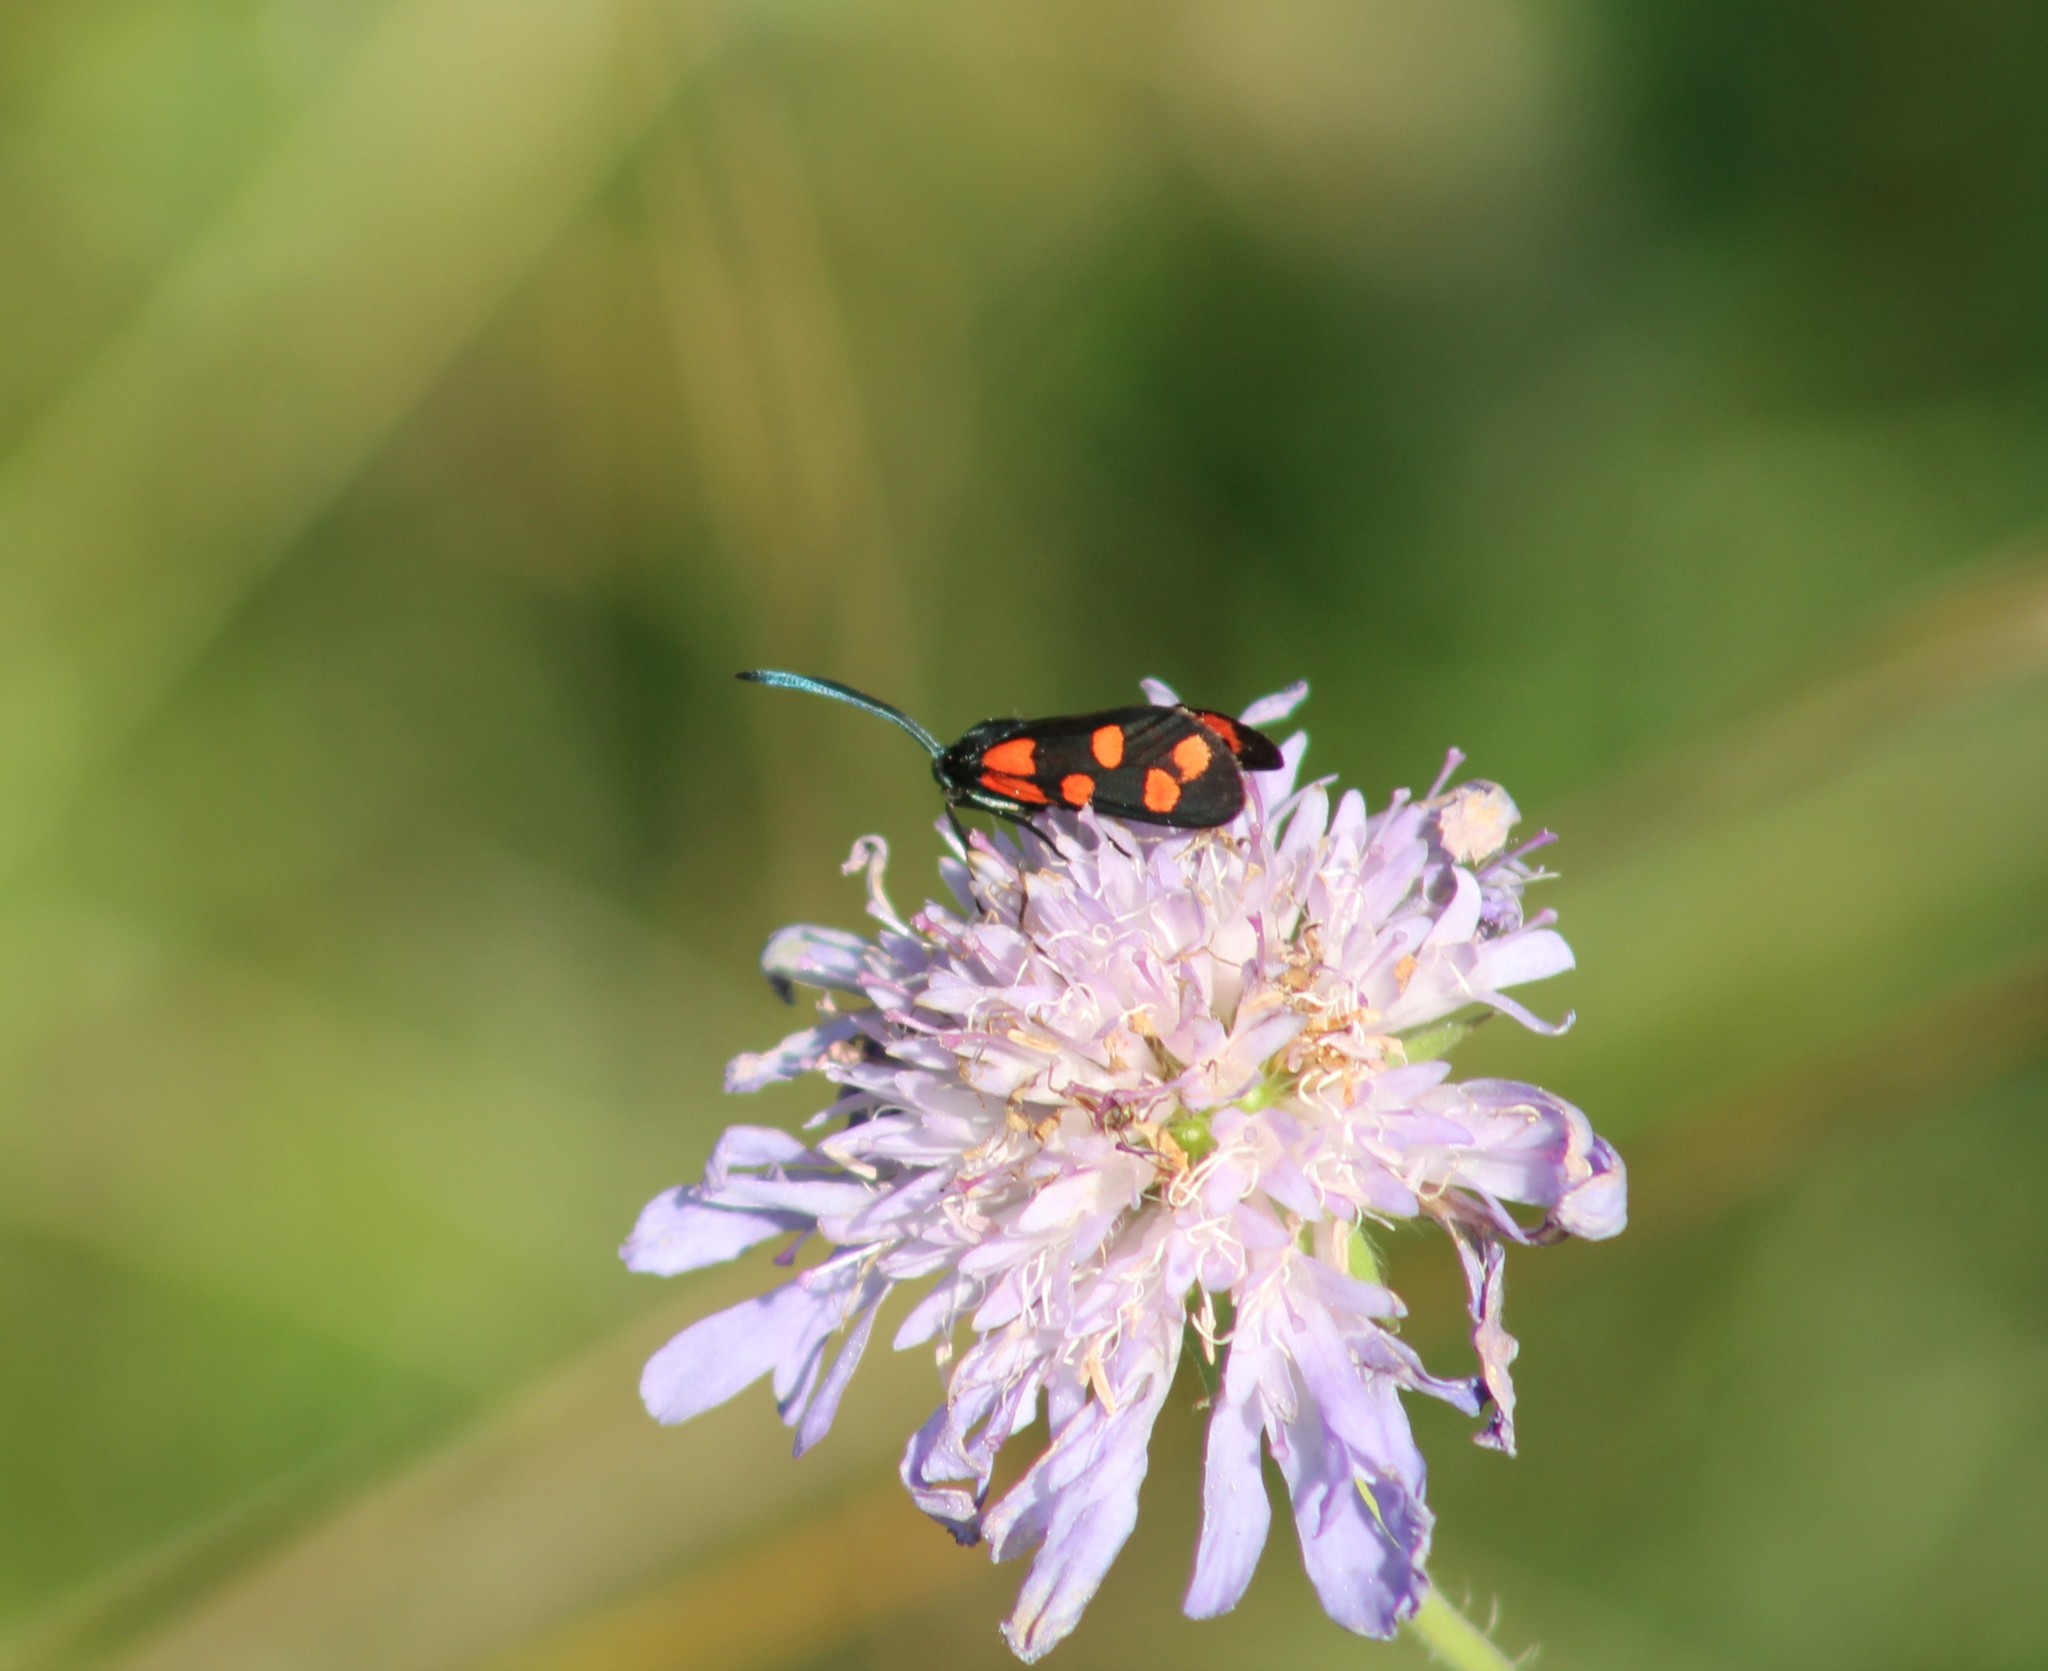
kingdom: Animalia
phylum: Arthropoda
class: Insecta
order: Lepidoptera
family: Zygaenidae
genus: Zygaena
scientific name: Zygaena transalpina
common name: Southern six spot burnet
